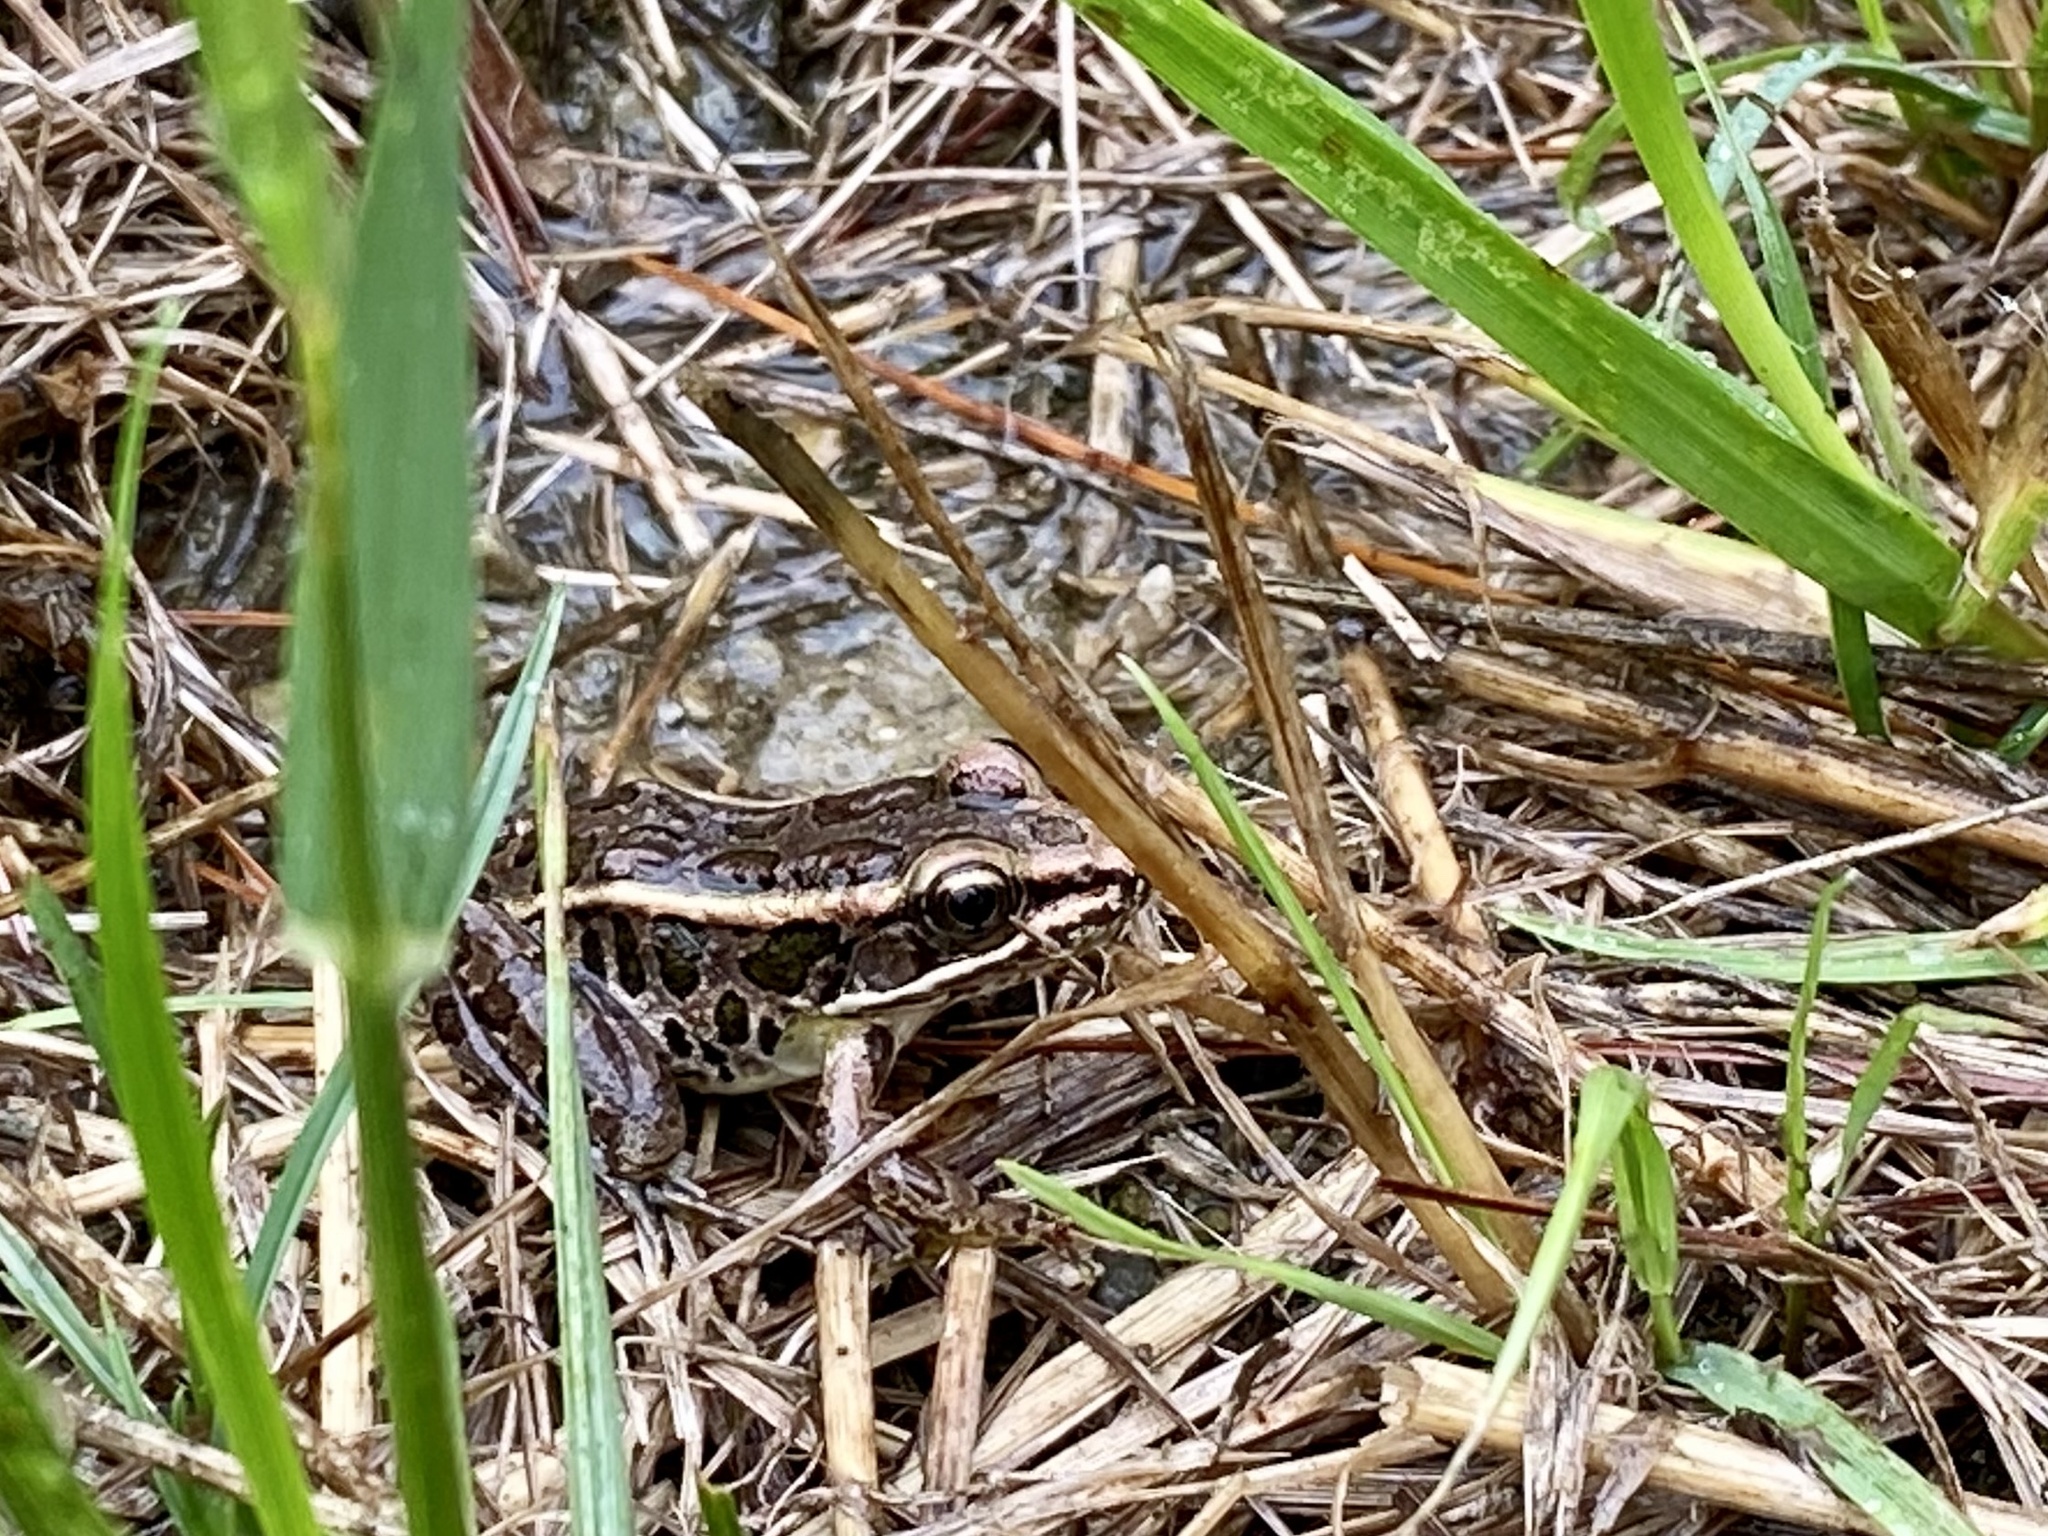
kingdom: Animalia
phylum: Chordata
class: Amphibia
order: Anura
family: Ranidae
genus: Lithobates
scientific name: Lithobates palustris
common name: Pickerel frog
